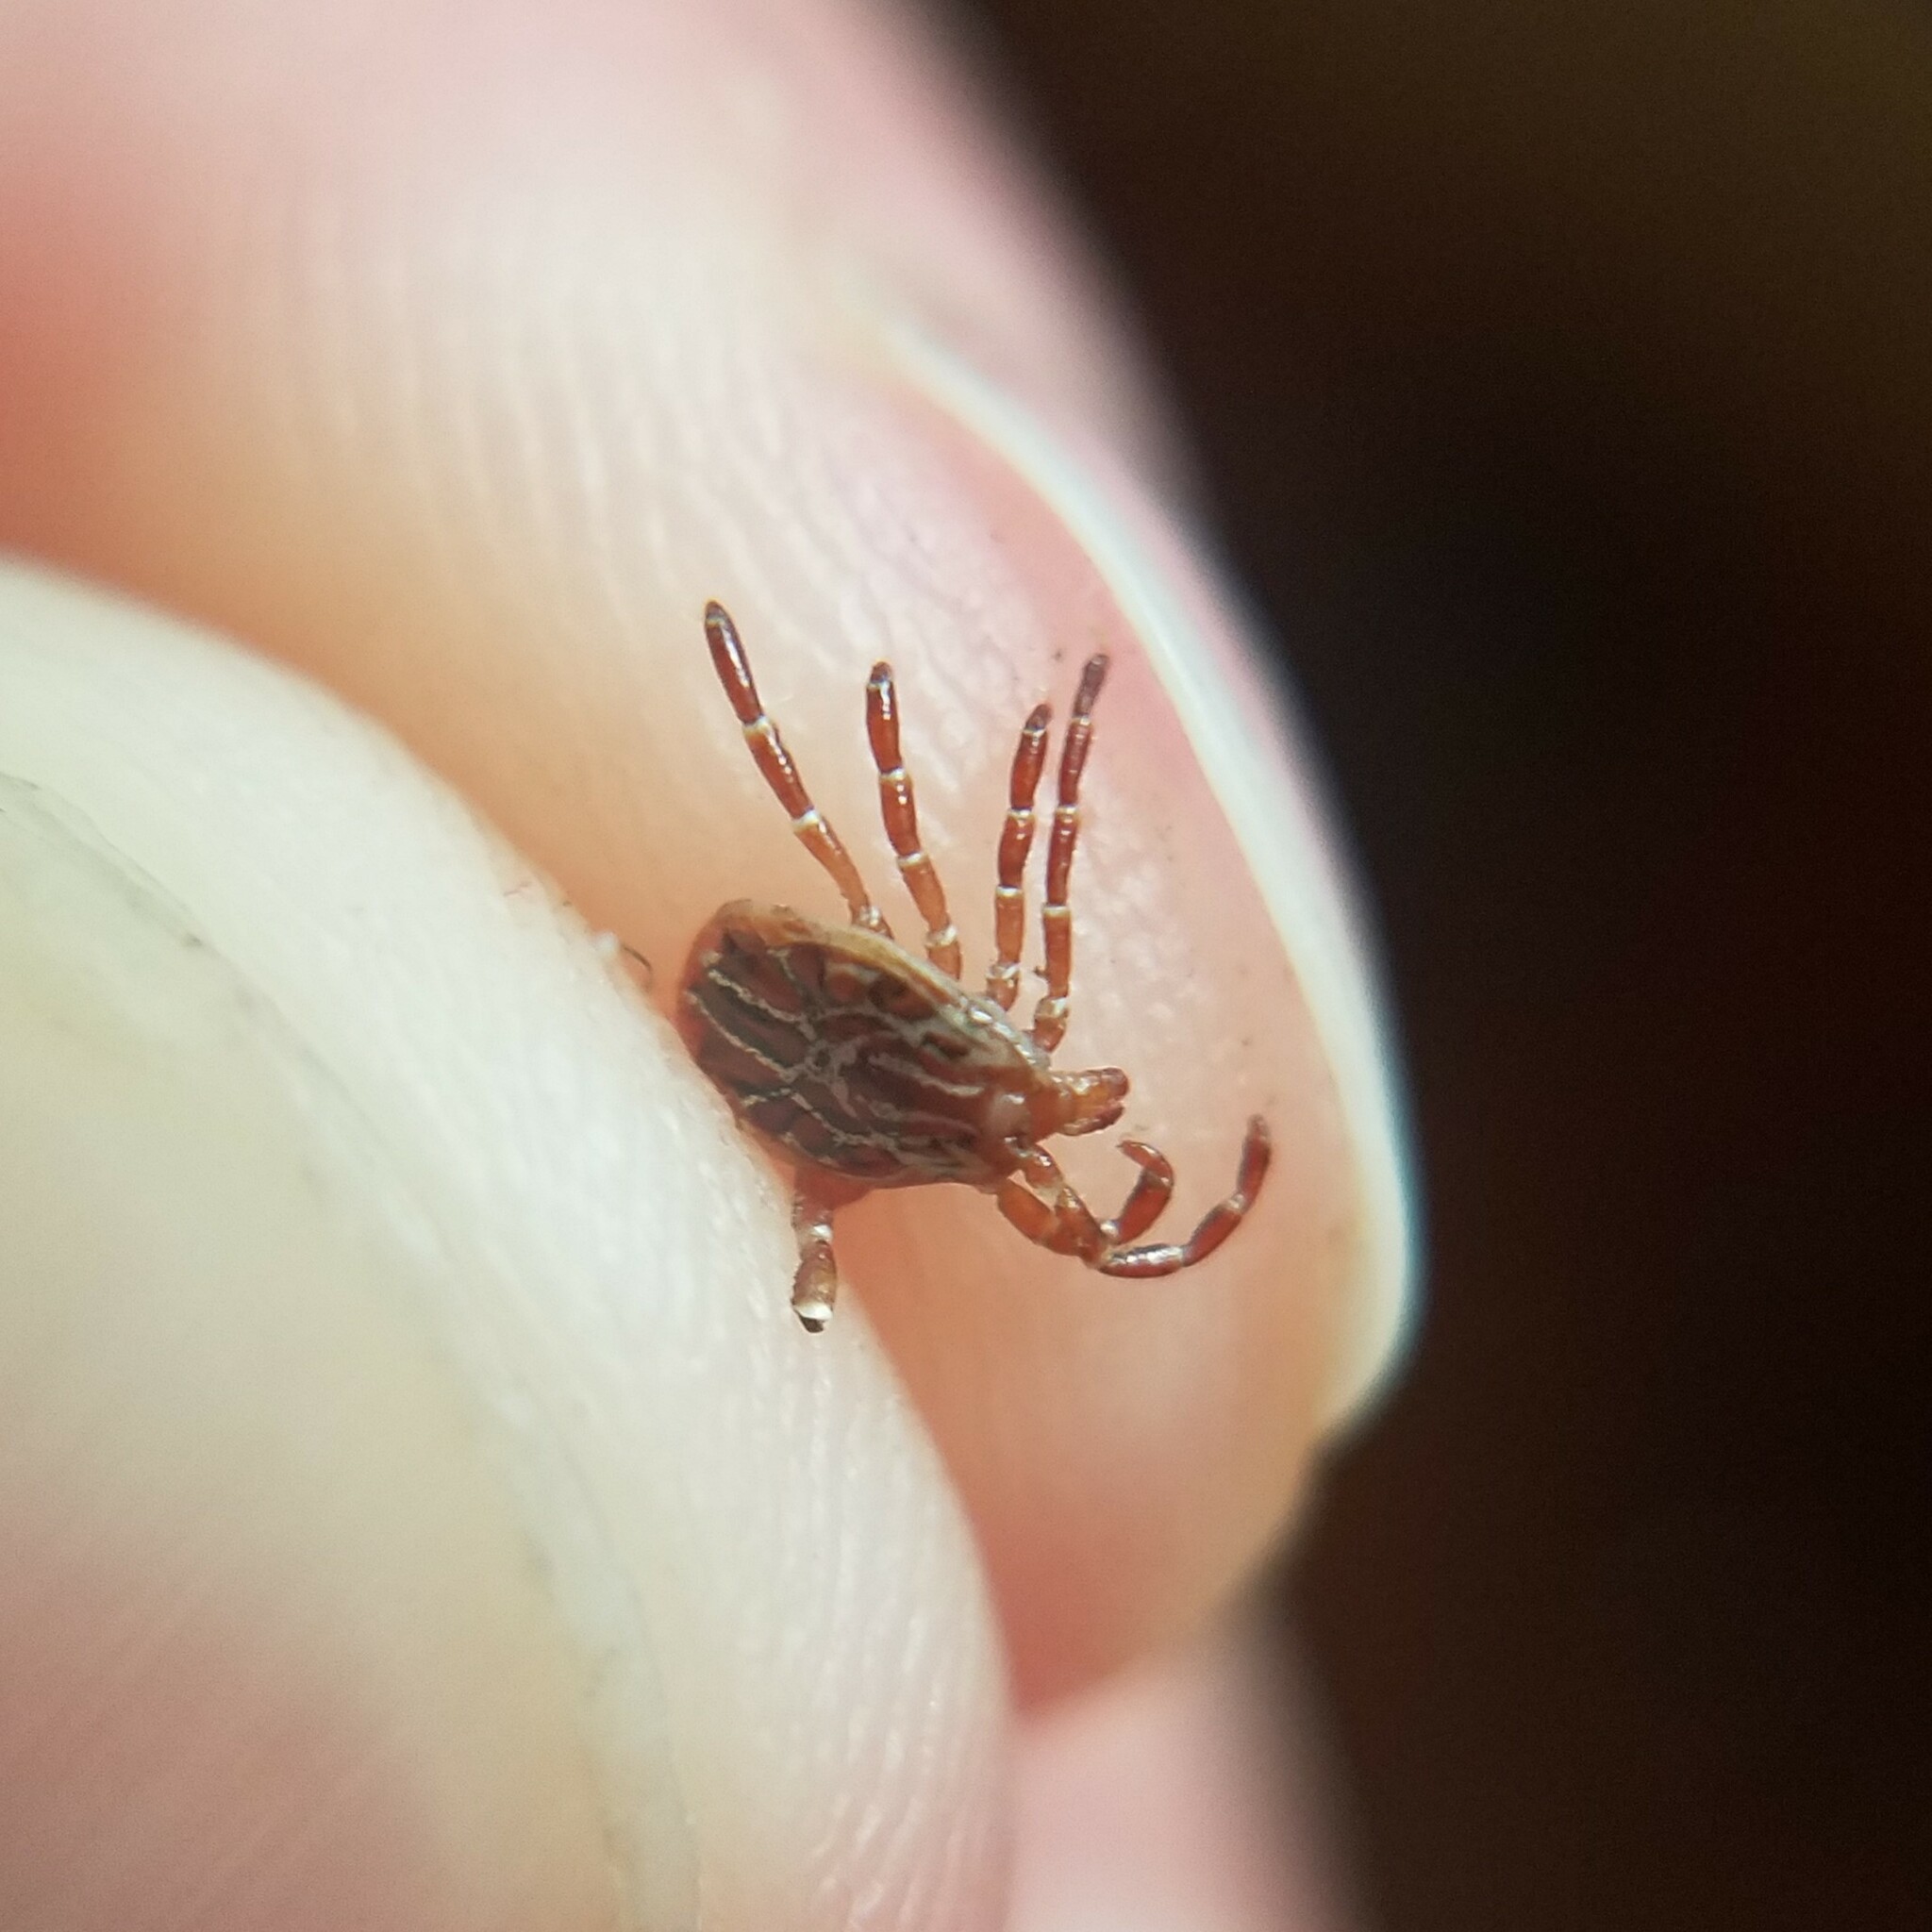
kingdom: Animalia
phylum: Arthropoda
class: Arachnida
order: Ixodida
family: Ixodidae
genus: Amblyomma
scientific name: Amblyomma maculatum
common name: Gulf coast tick
